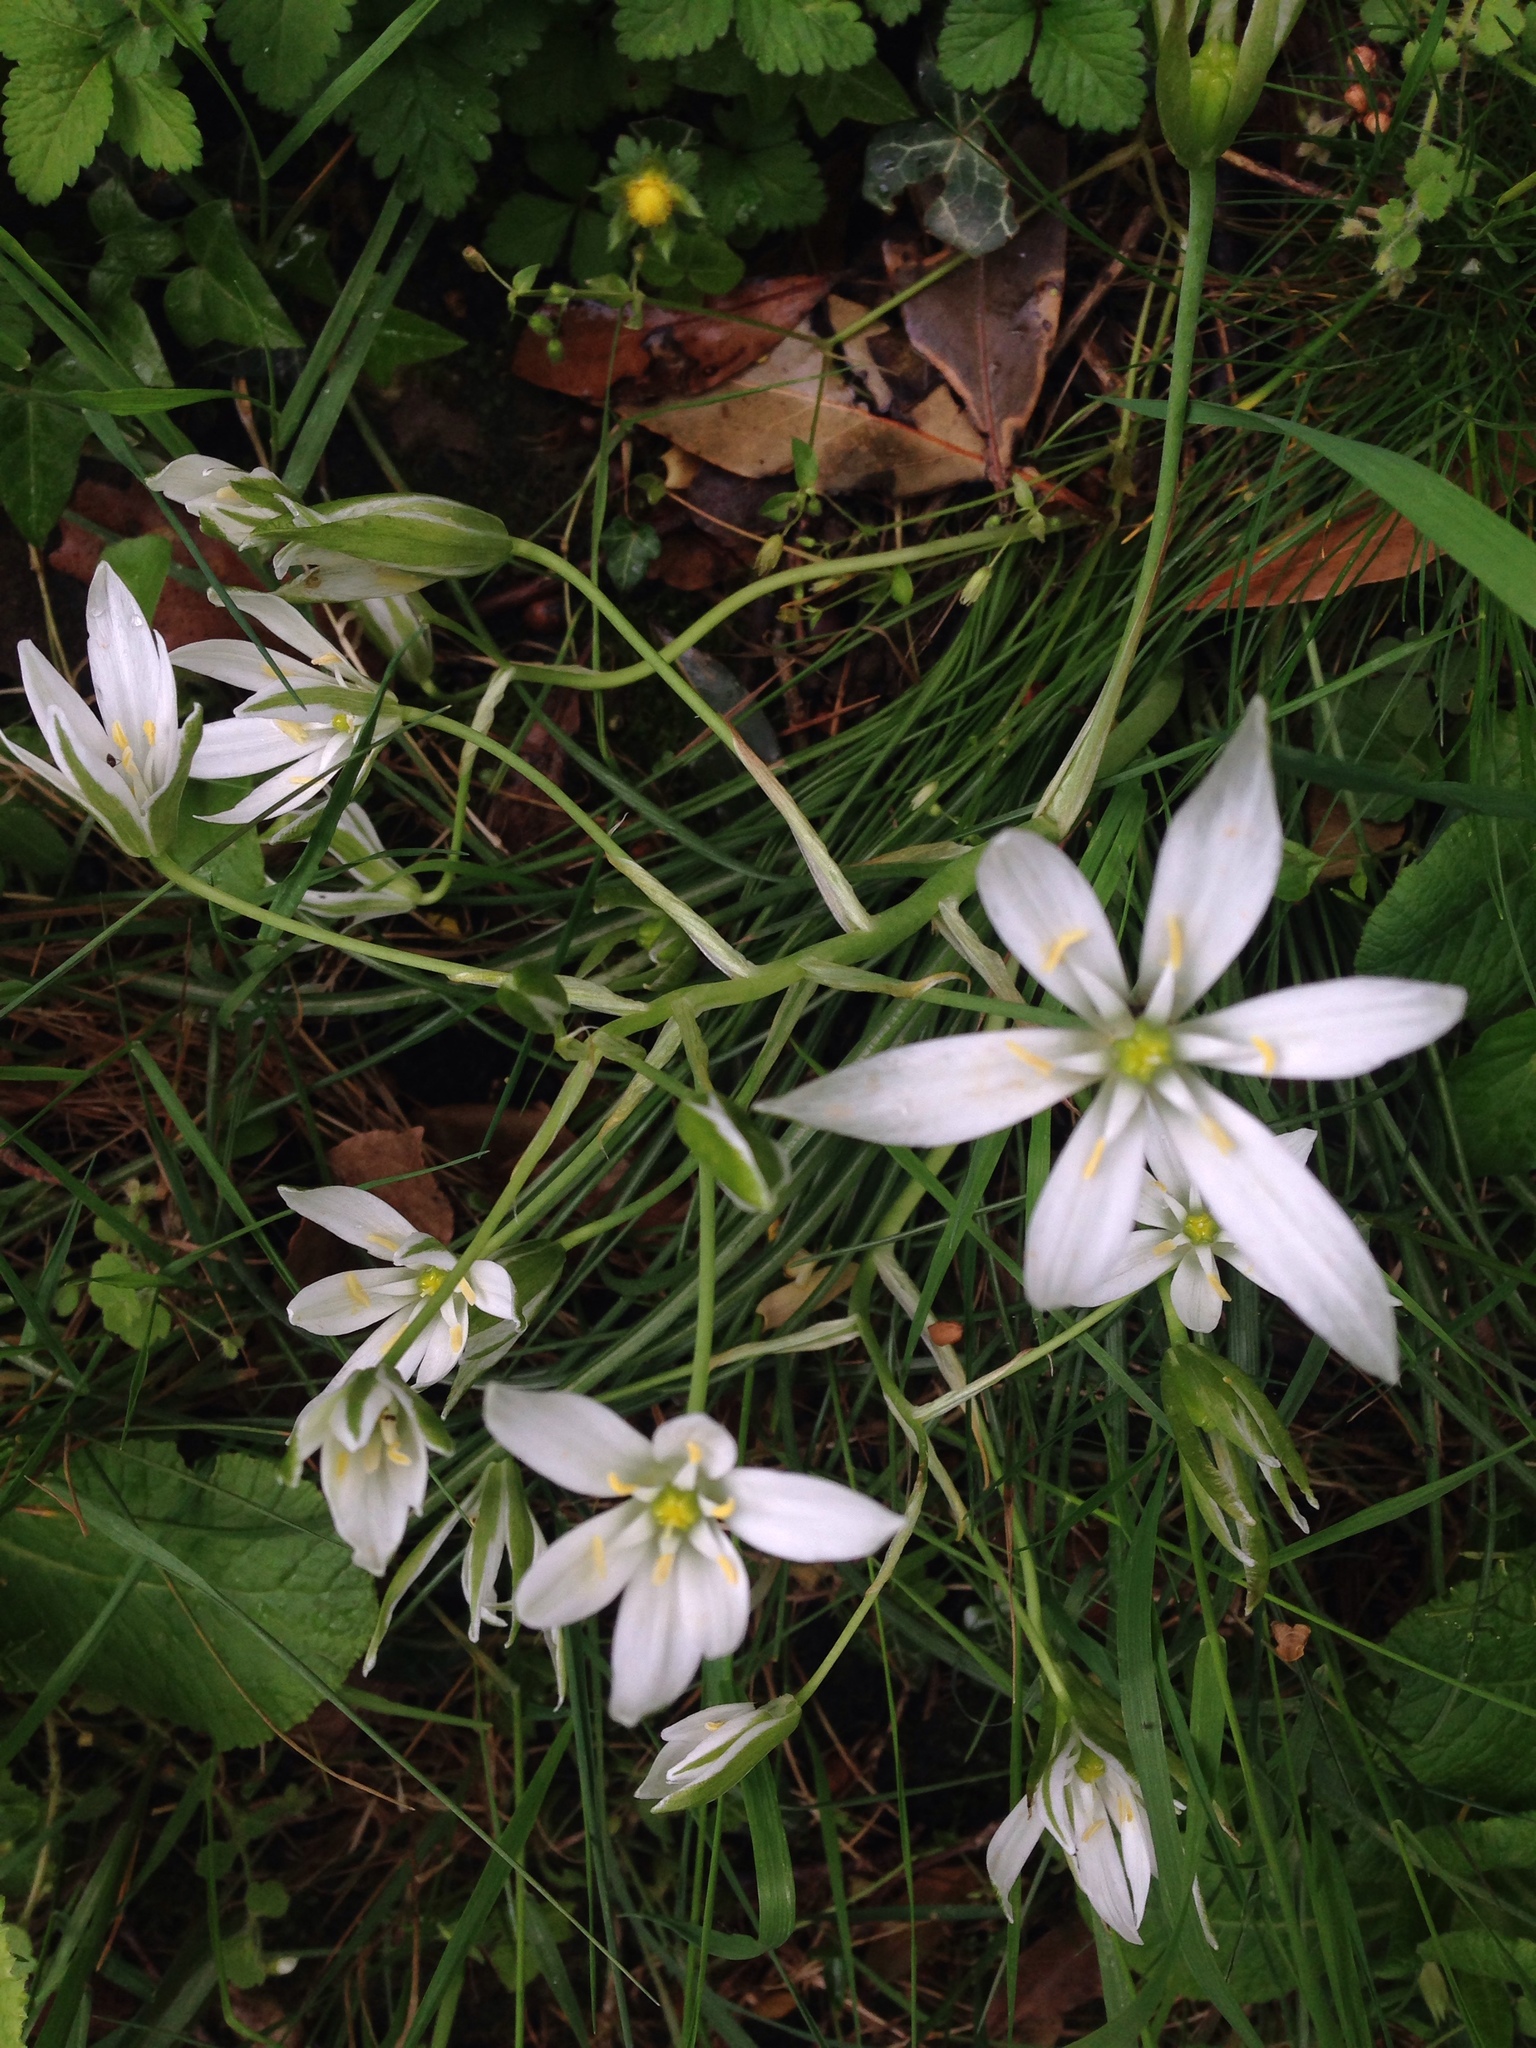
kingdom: Plantae
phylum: Tracheophyta
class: Liliopsida
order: Asparagales
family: Asparagaceae
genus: Ornithogalum
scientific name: Ornithogalum umbellatum
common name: Garden star-of-bethlehem
